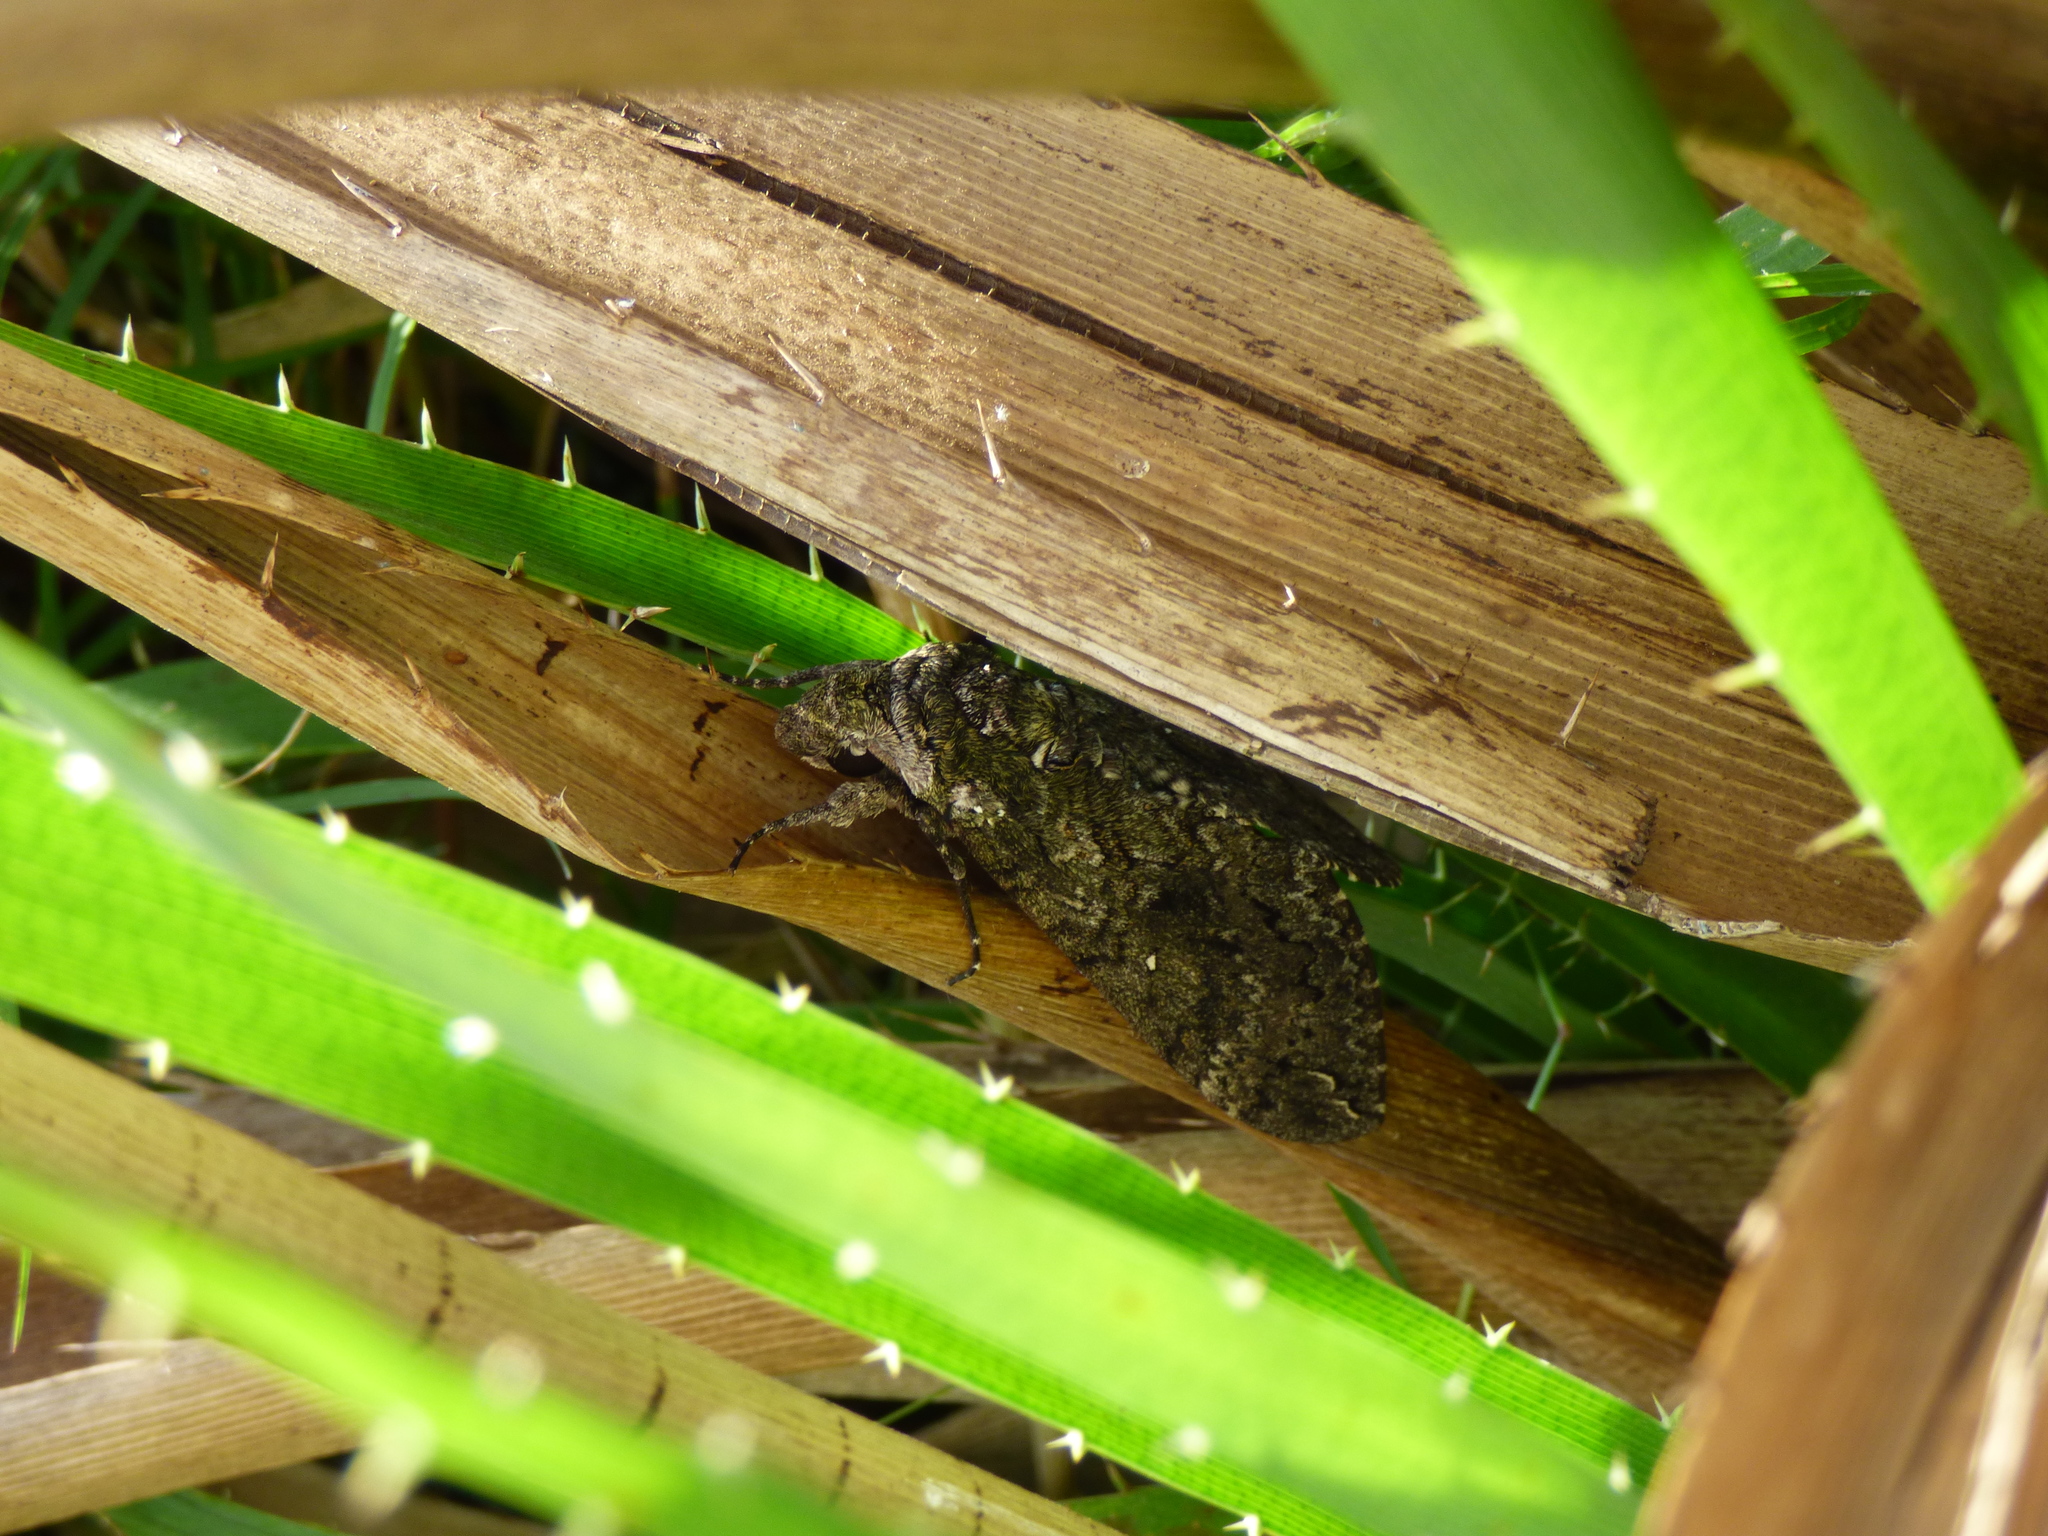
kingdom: Animalia
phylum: Arthropoda
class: Insecta
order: Lepidoptera
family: Sphingidae
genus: Manduca
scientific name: Manduca afflicta
